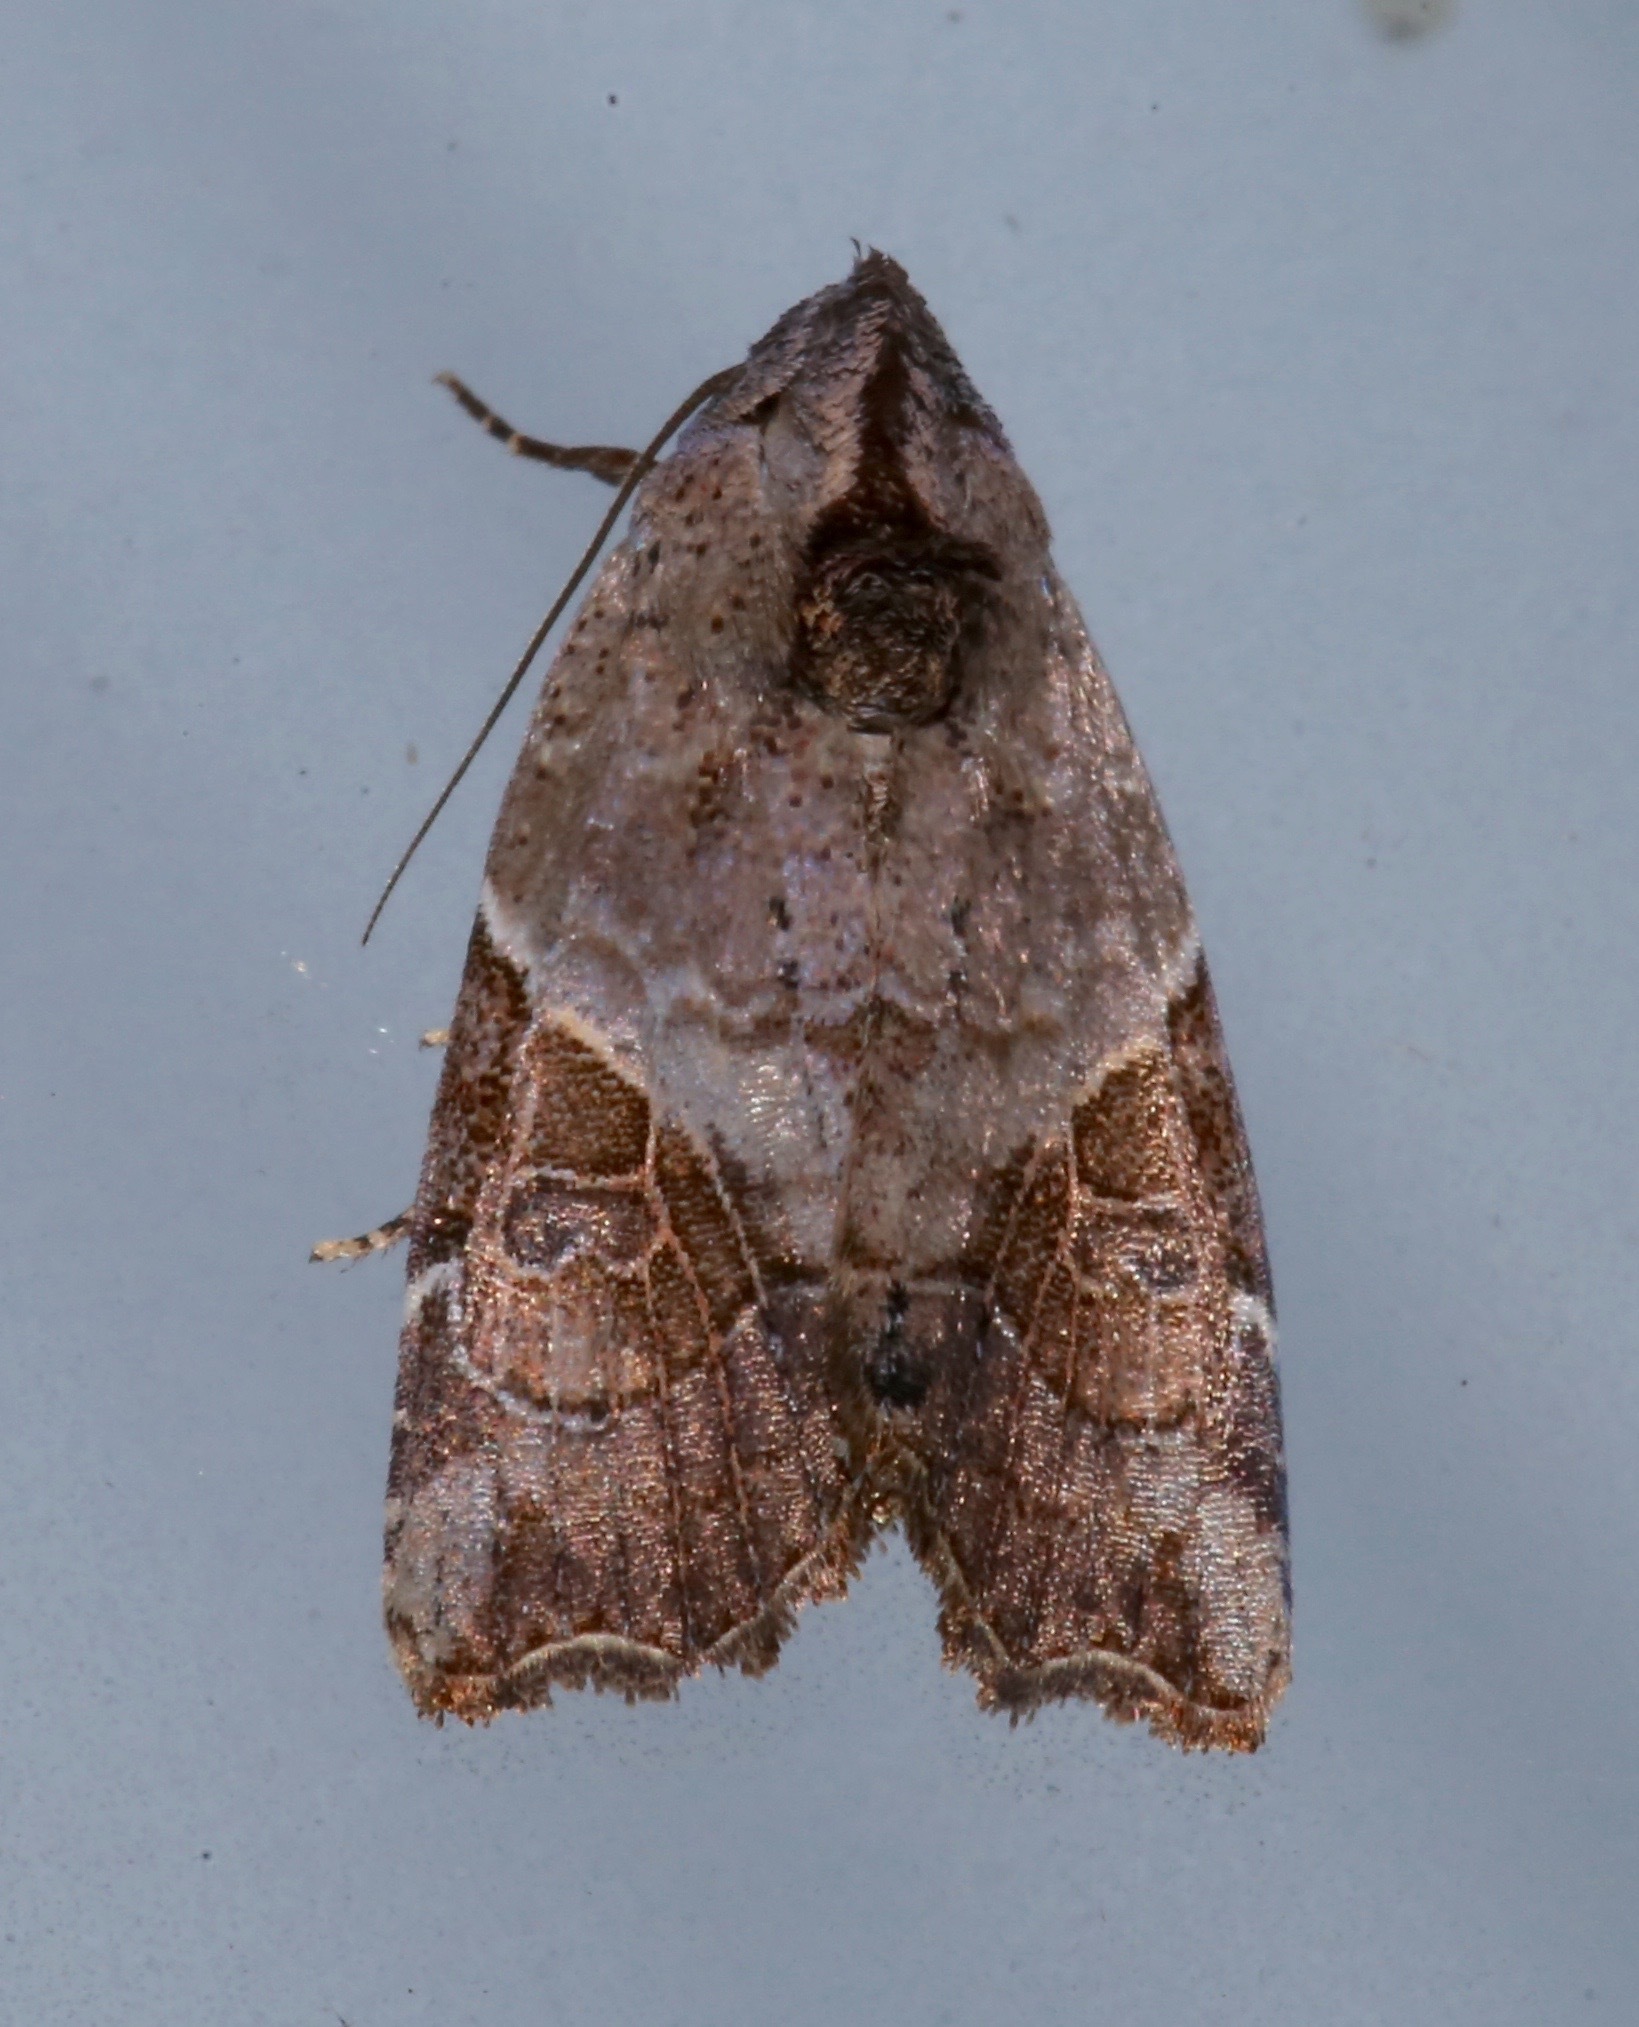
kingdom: Animalia
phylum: Arthropoda
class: Insecta
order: Lepidoptera
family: Noctuidae
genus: Gonodes
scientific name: Gonodes liquida
